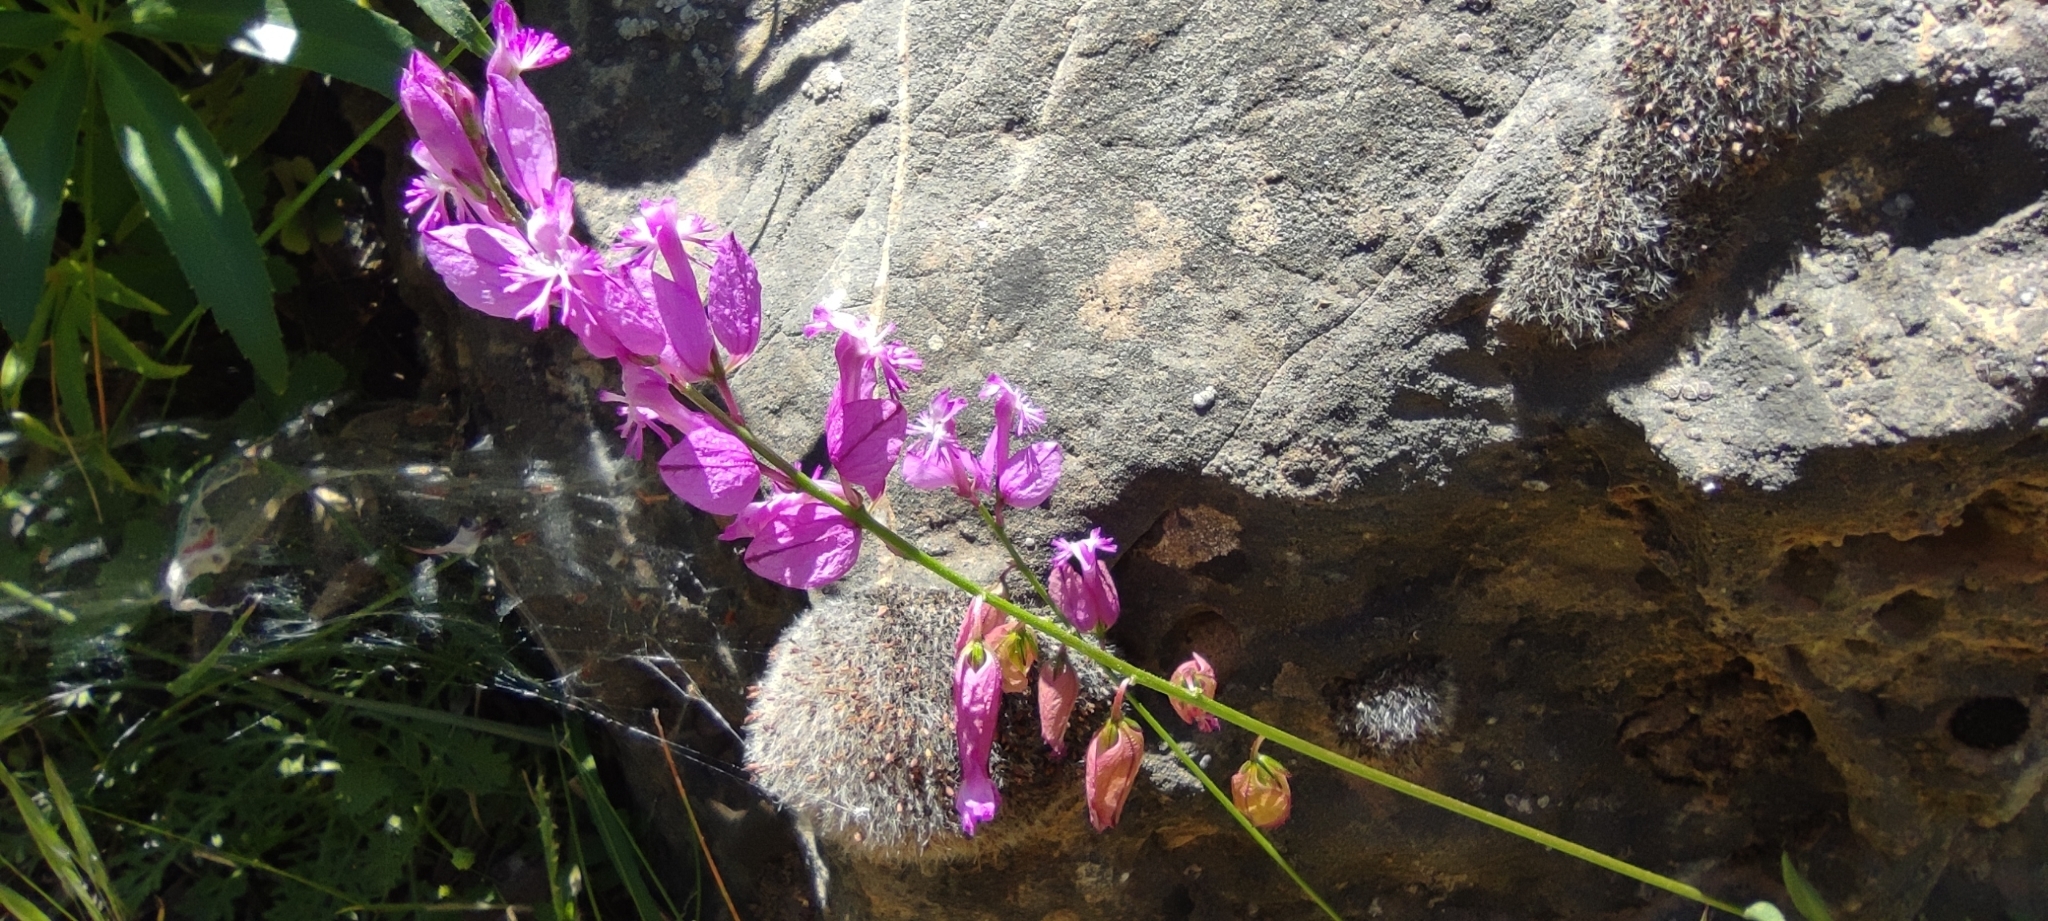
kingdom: Plantae
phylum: Tracheophyta
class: Magnoliopsida
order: Fabales
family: Polygalaceae
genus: Polygala
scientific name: Polygala boissieri
